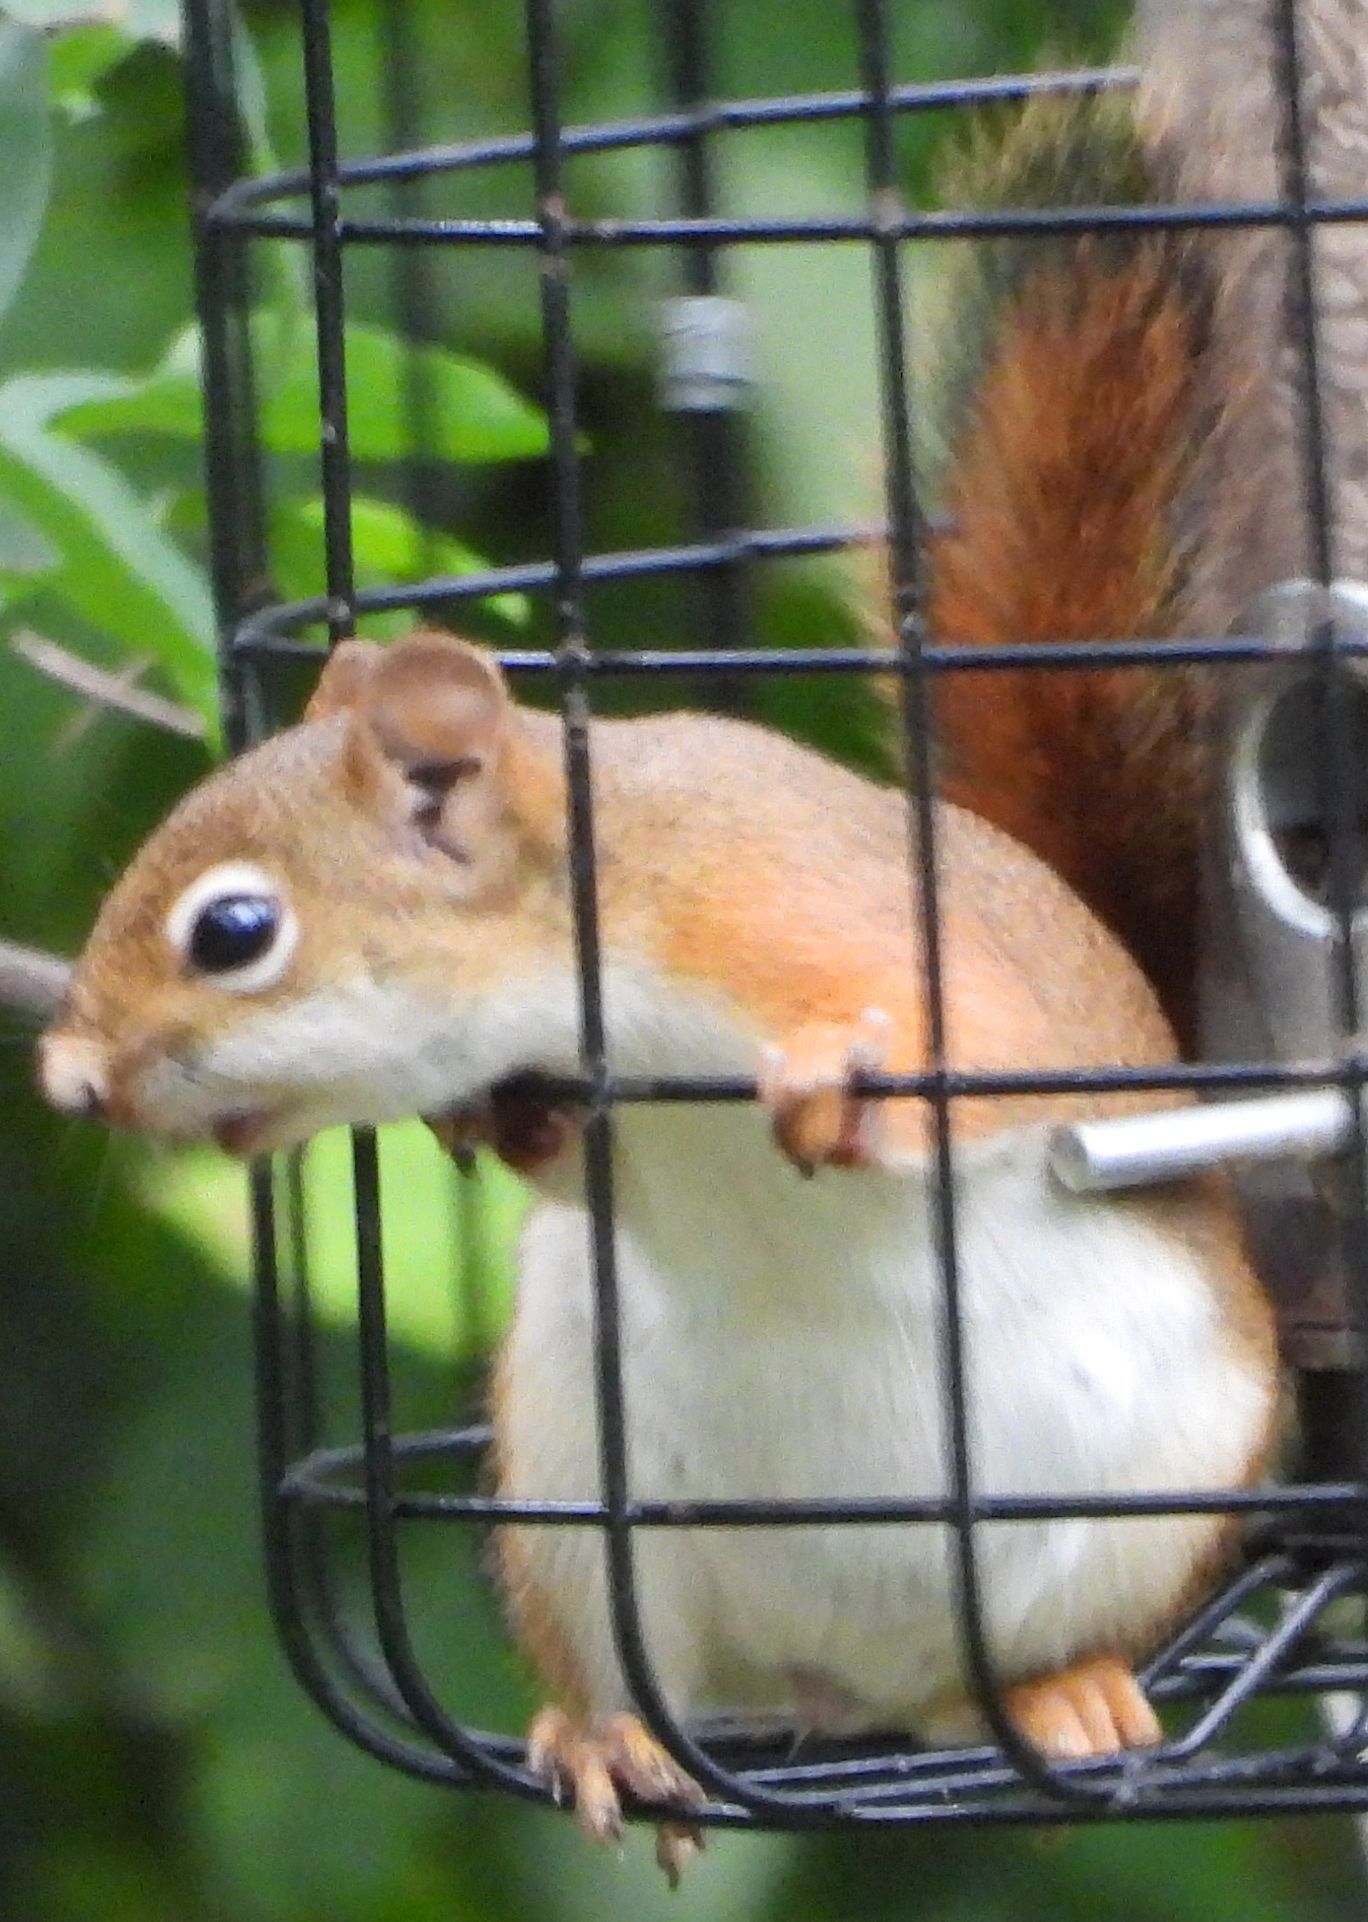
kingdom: Animalia
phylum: Chordata
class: Mammalia
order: Rodentia
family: Sciuridae
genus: Tamiasciurus
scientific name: Tamiasciurus hudsonicus
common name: Red squirrel
